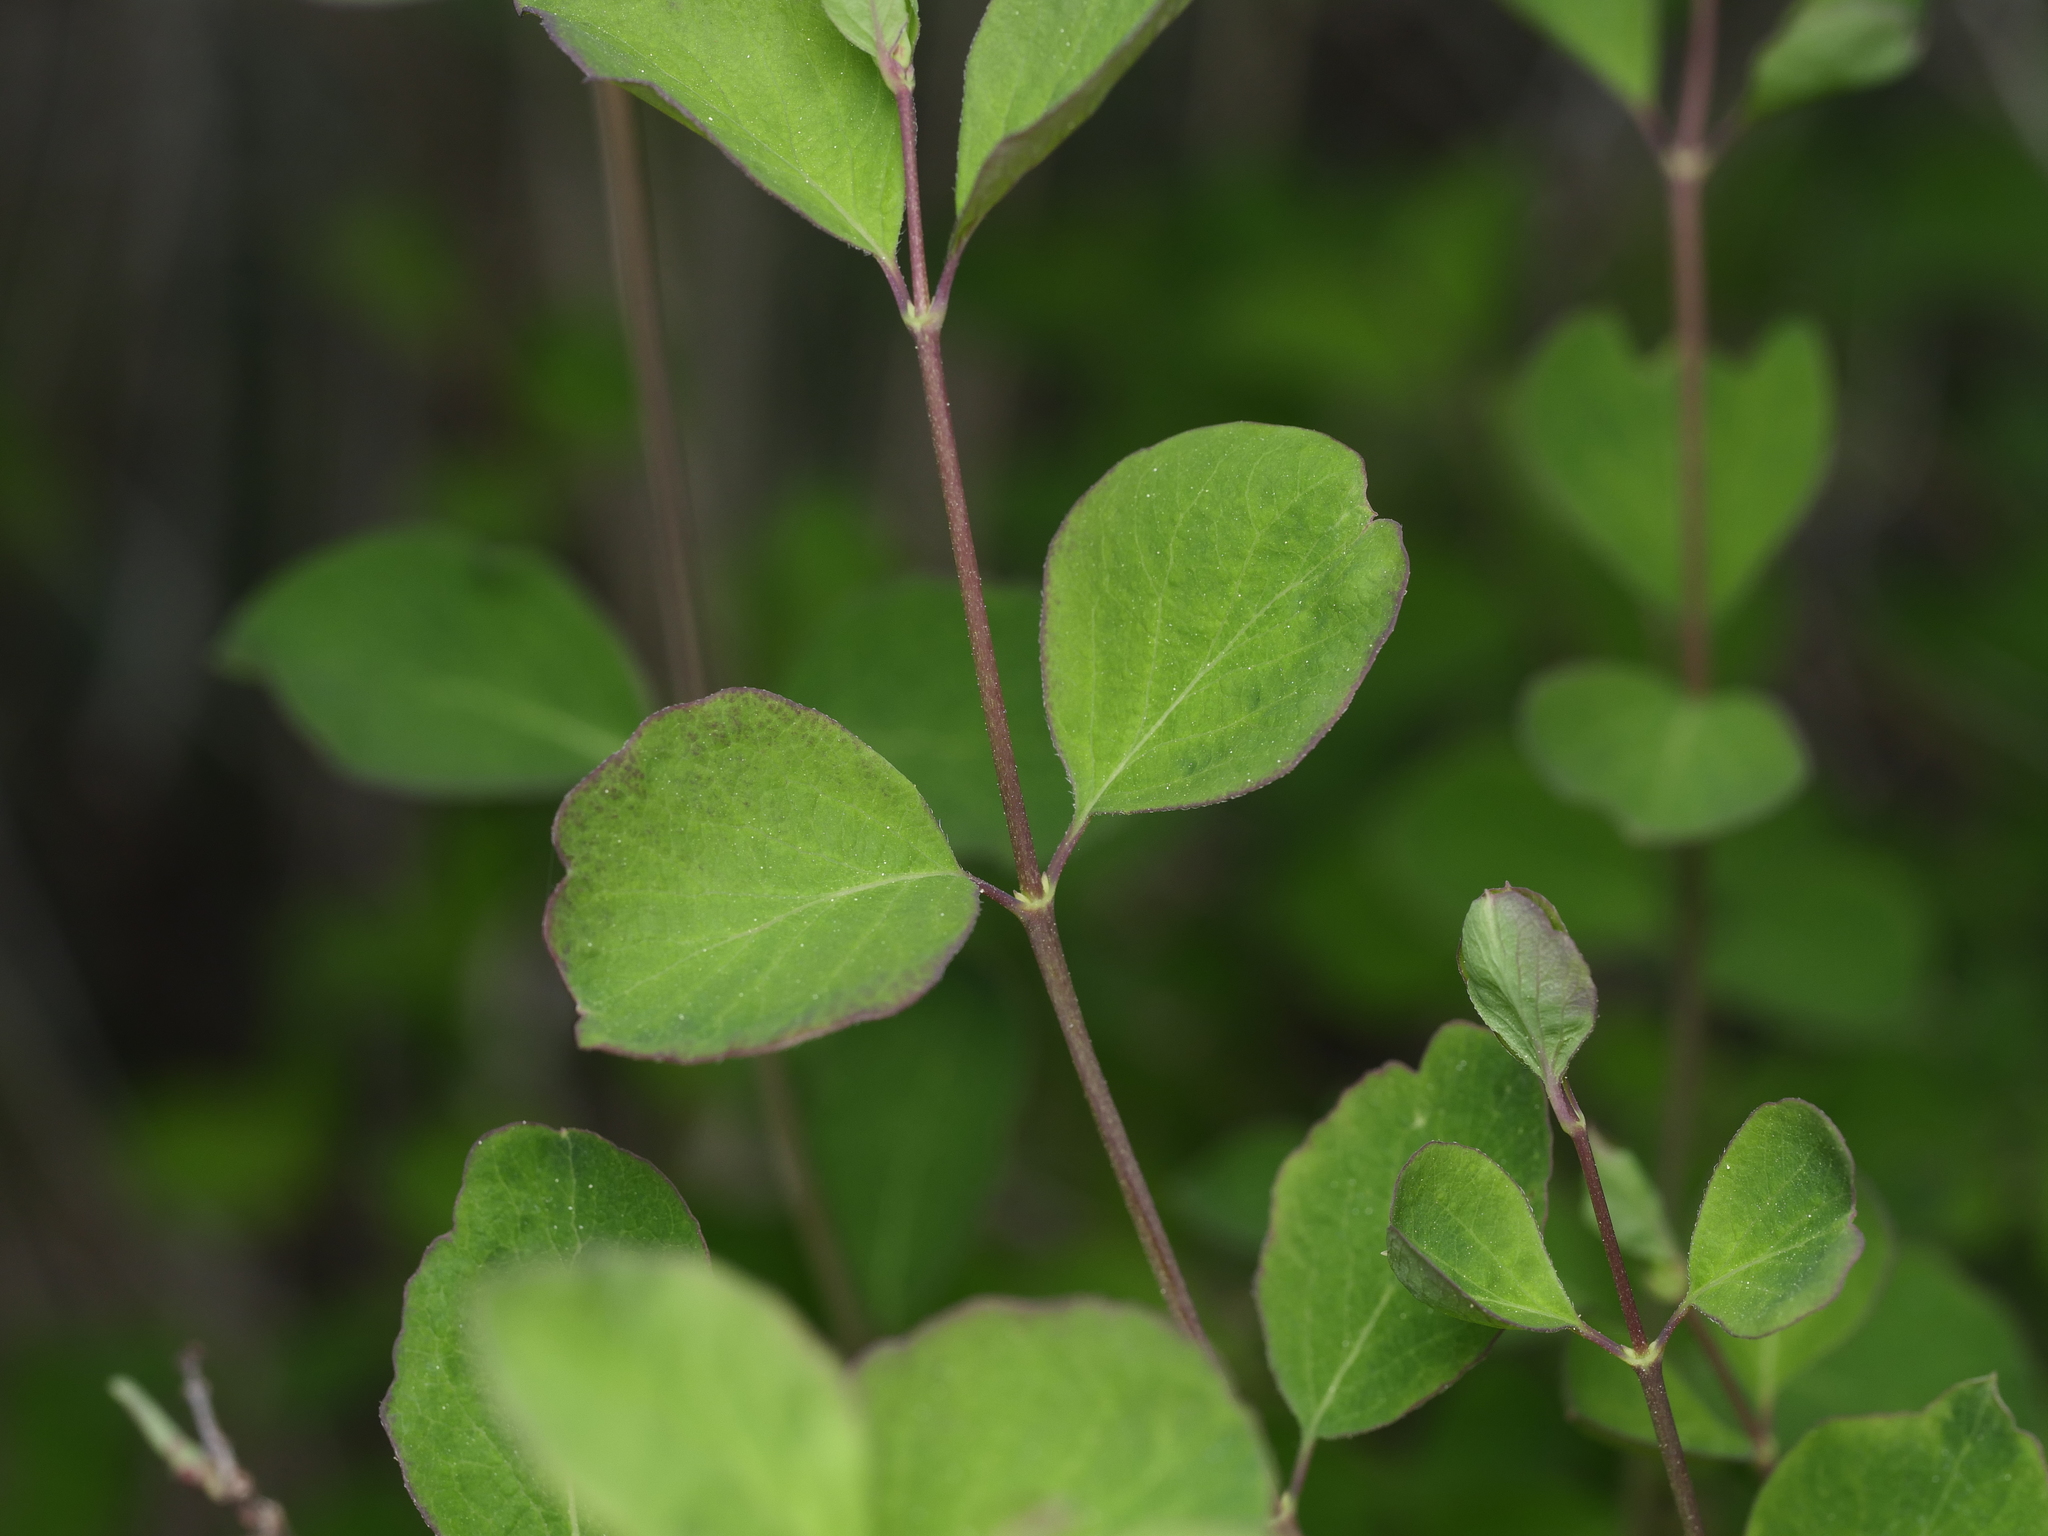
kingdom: Plantae
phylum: Tracheophyta
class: Magnoliopsida
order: Dipsacales
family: Caprifoliaceae
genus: Symphoricarpos
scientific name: Symphoricarpos albus
